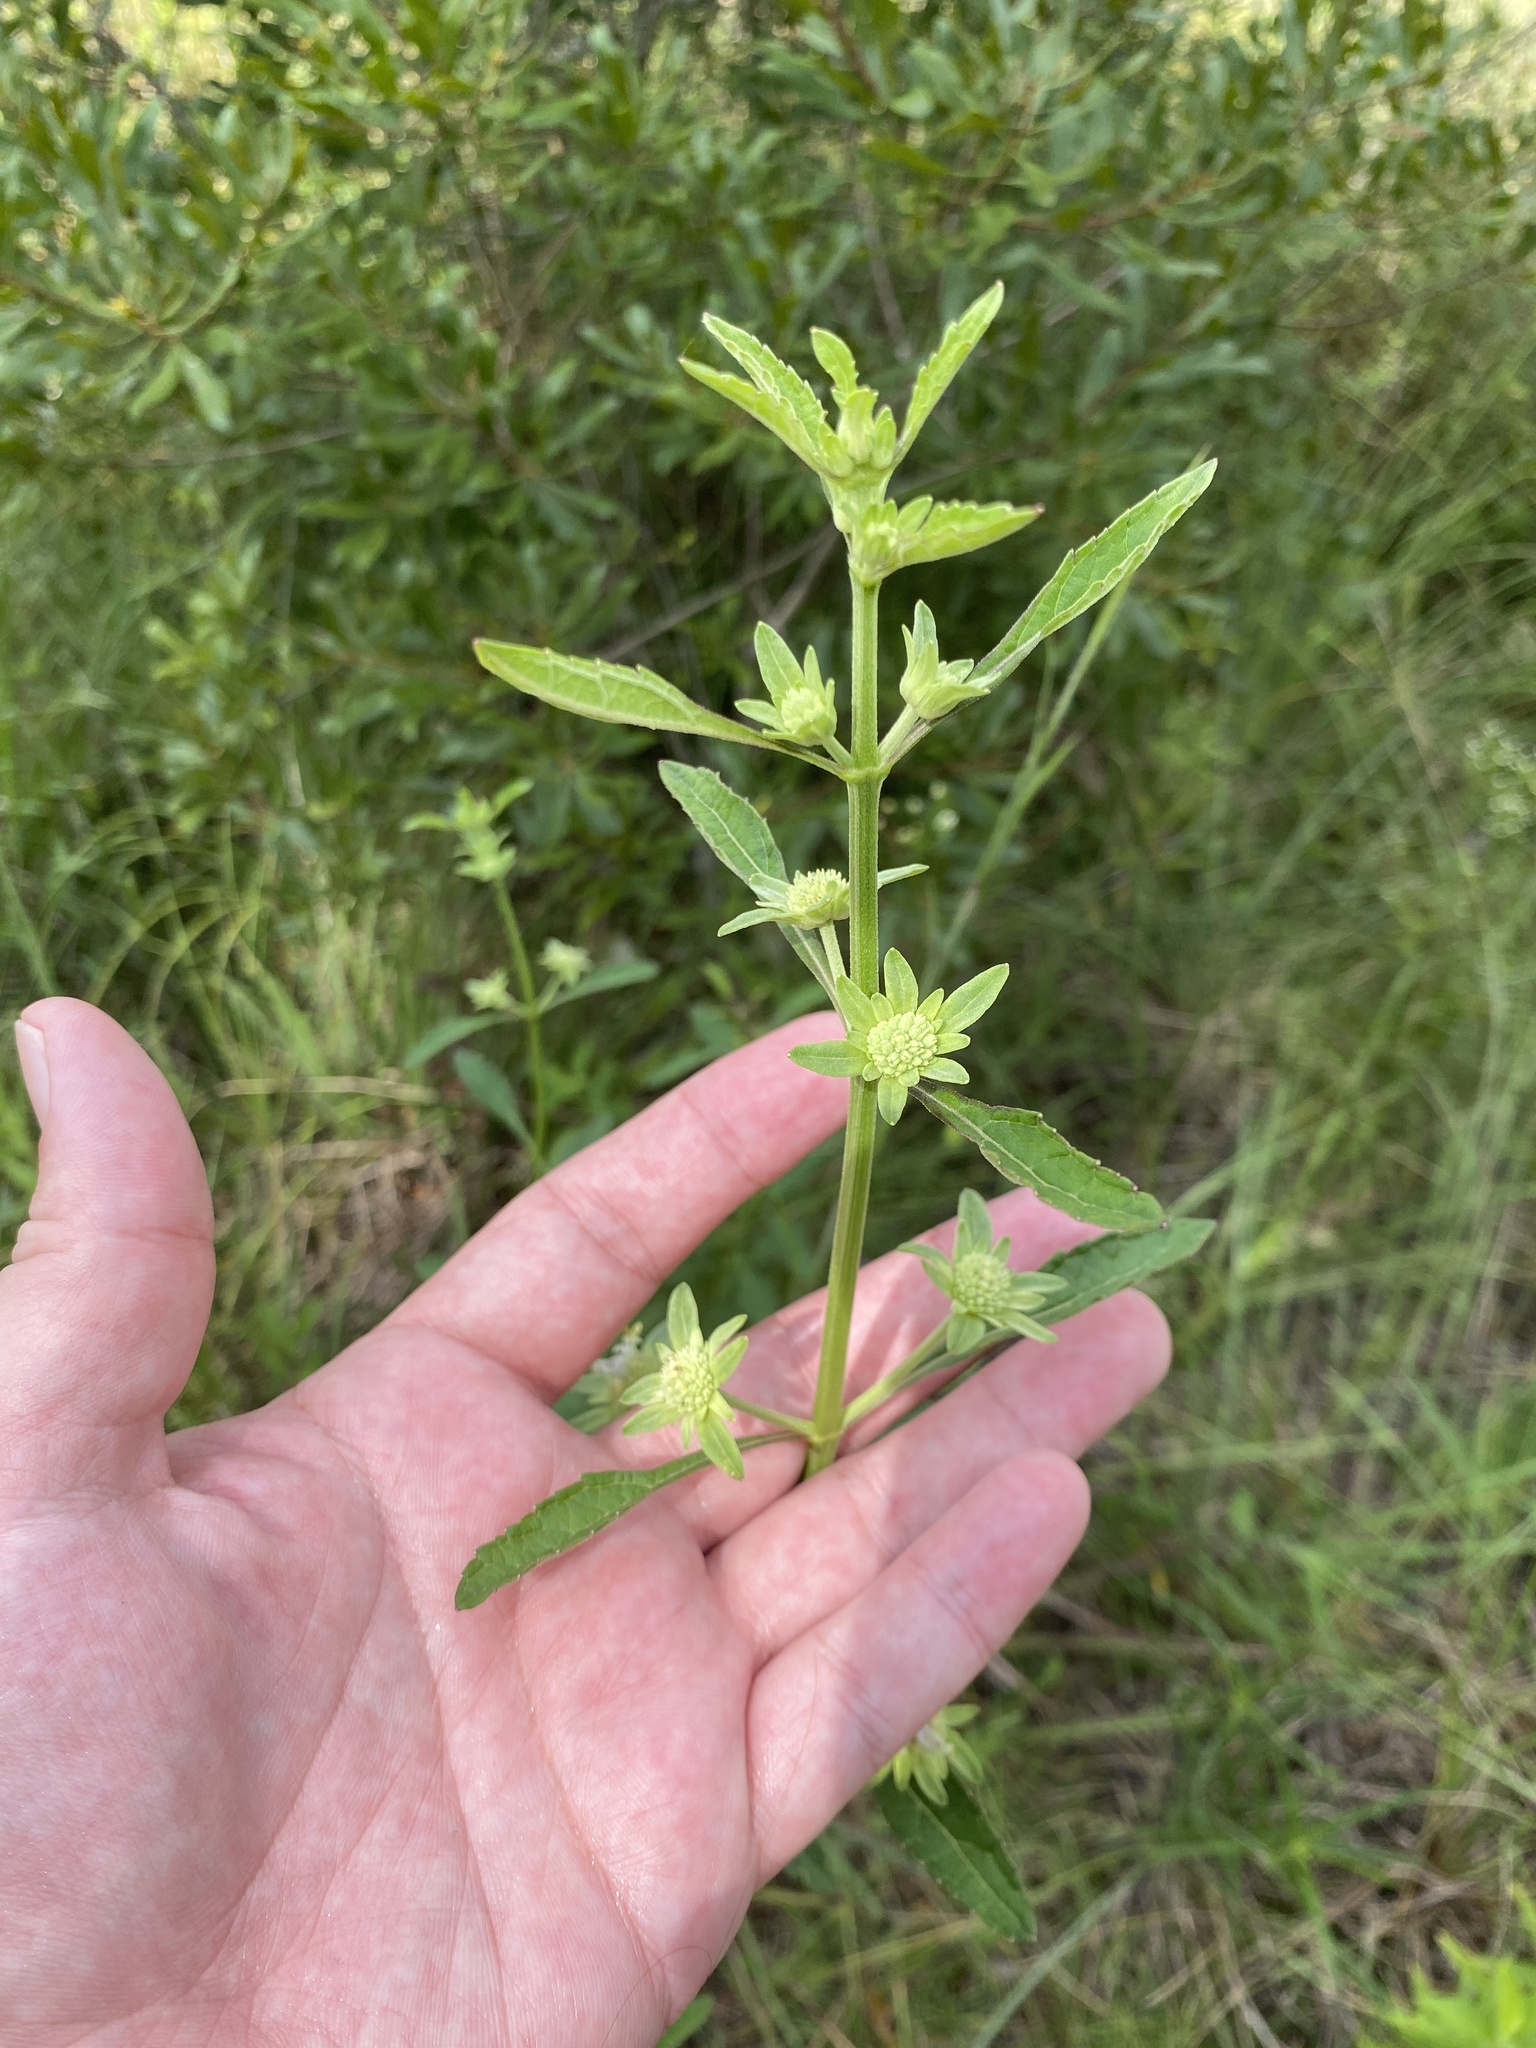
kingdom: Plantae
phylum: Tracheophyta
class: Magnoliopsida
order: Lamiales
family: Lamiaceae
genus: Hyptis
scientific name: Hyptis alata
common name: Cluster bush-mint
